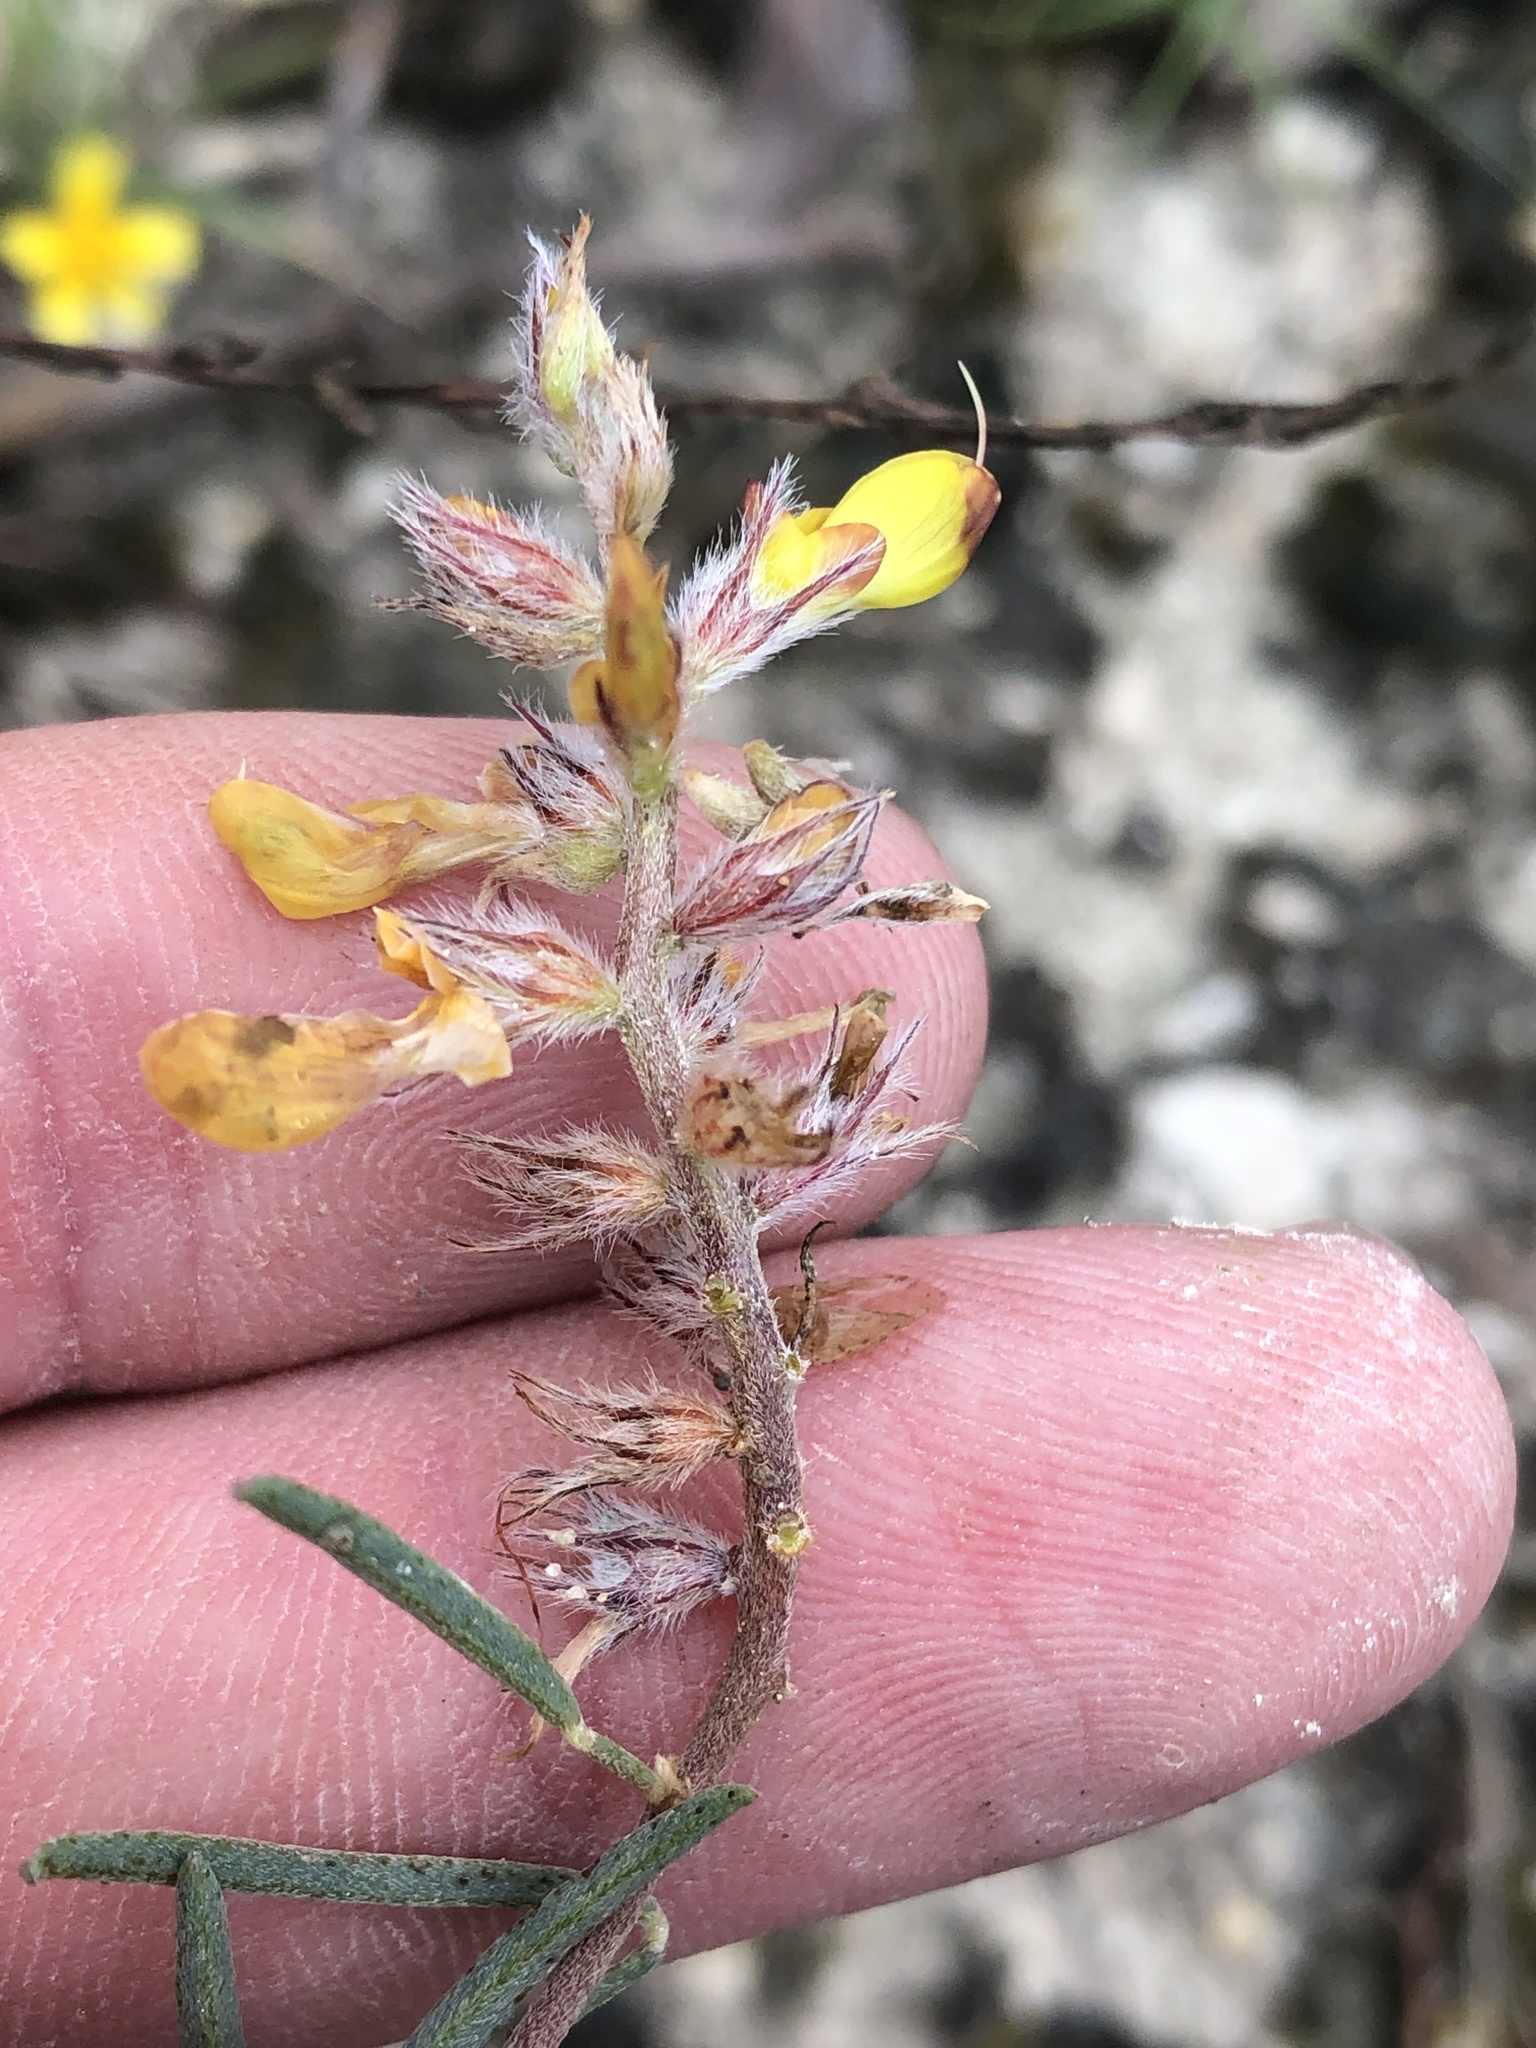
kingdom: Plantae
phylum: Tracheophyta
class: Magnoliopsida
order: Fabales
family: Fabaceae
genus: Dalea
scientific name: Dalea hallii
